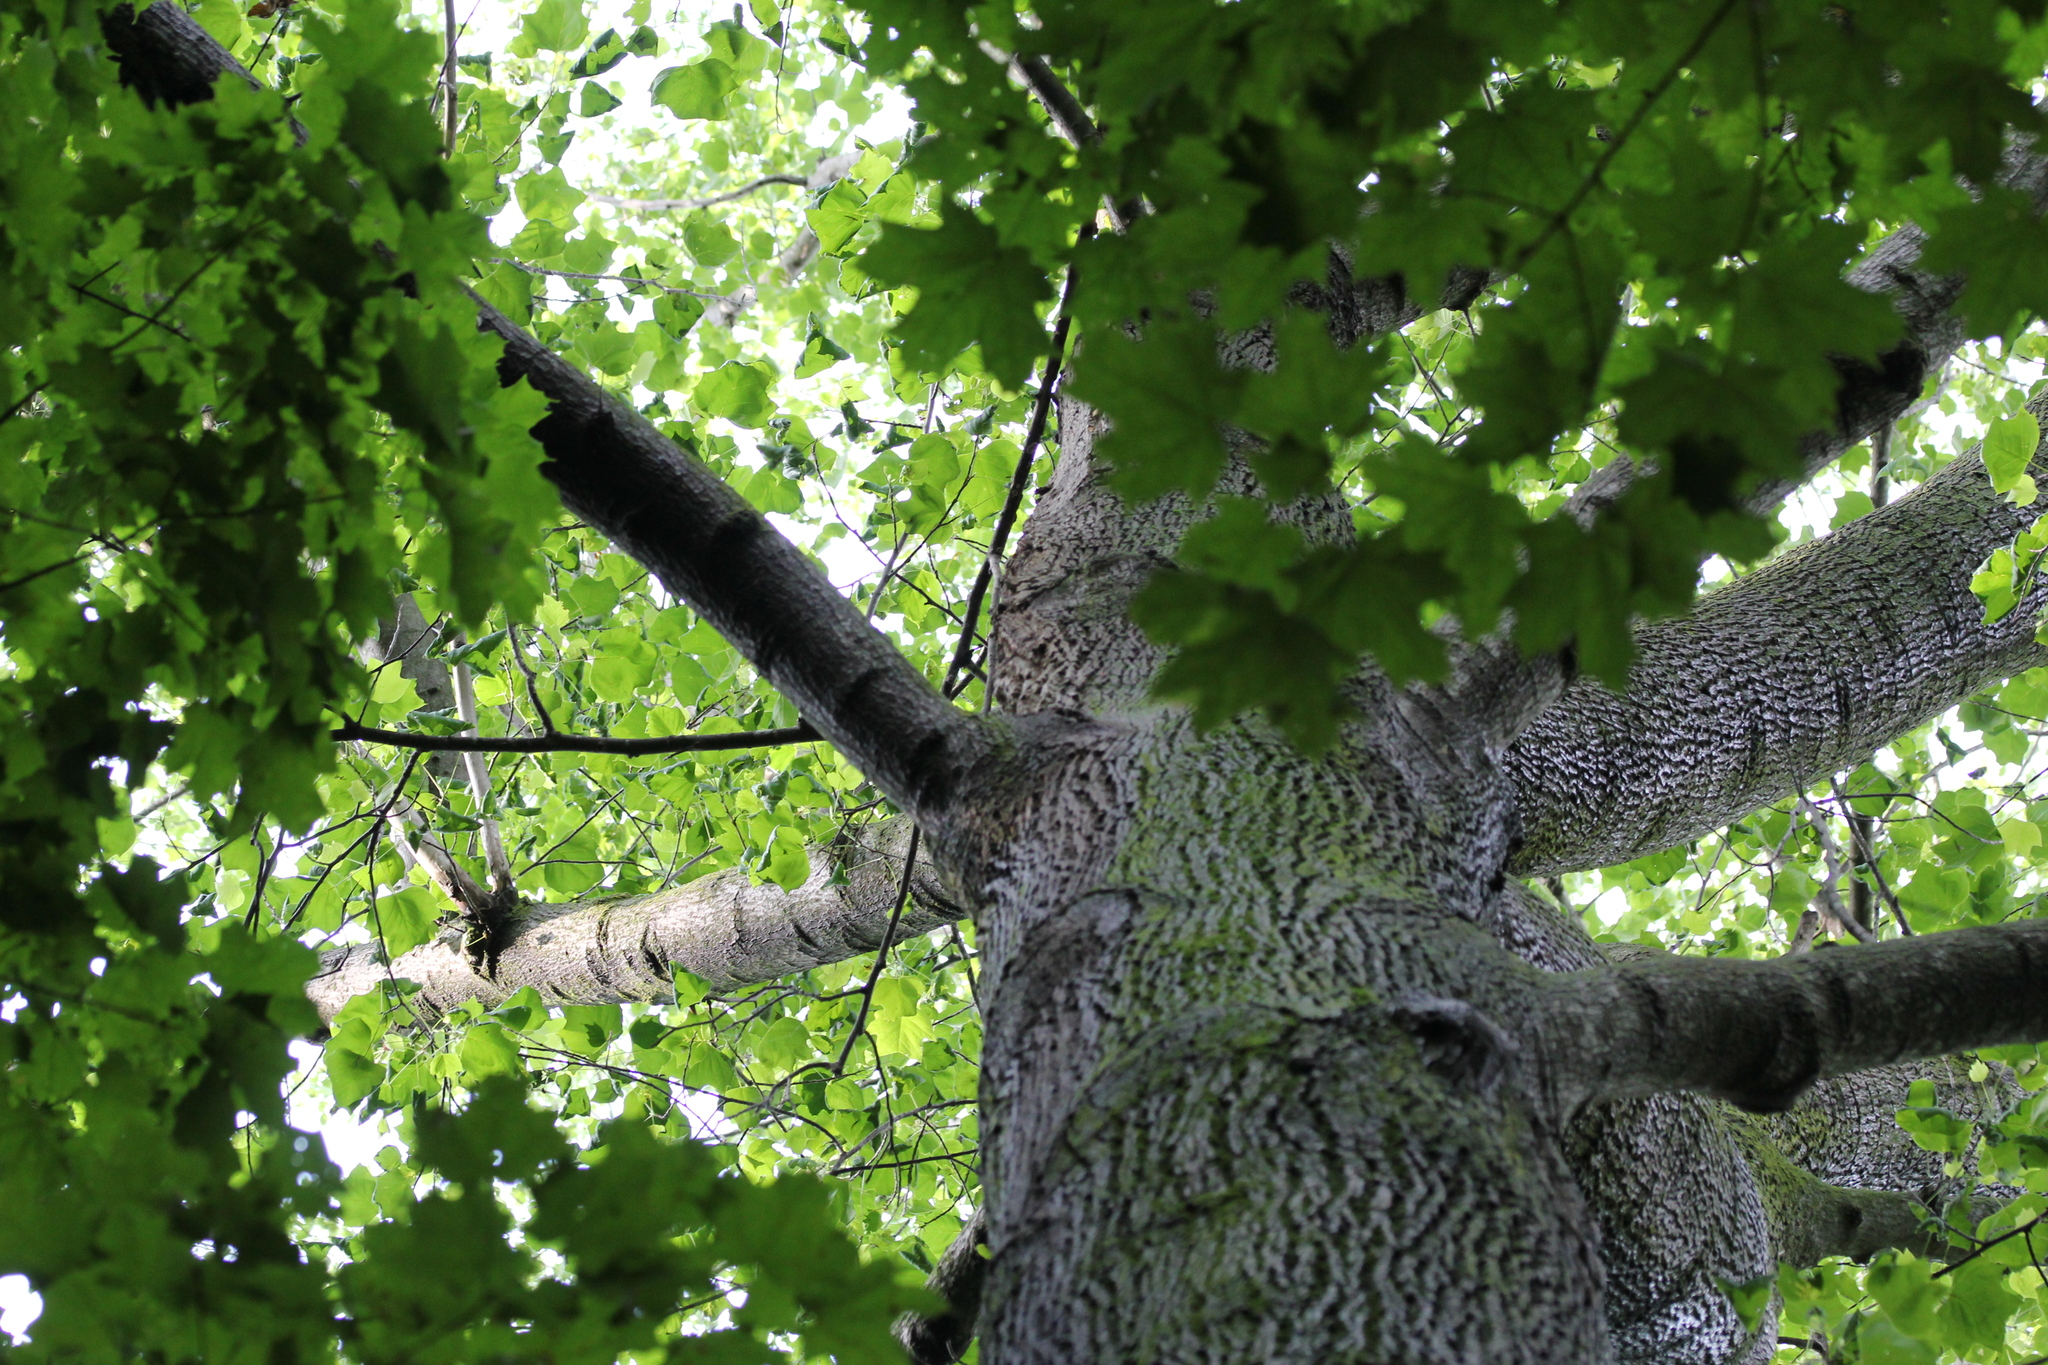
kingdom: Plantae
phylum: Tracheophyta
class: Magnoliopsida
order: Magnoliales
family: Magnoliaceae
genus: Liriodendron
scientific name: Liriodendron tulipifera
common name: Tulip tree
